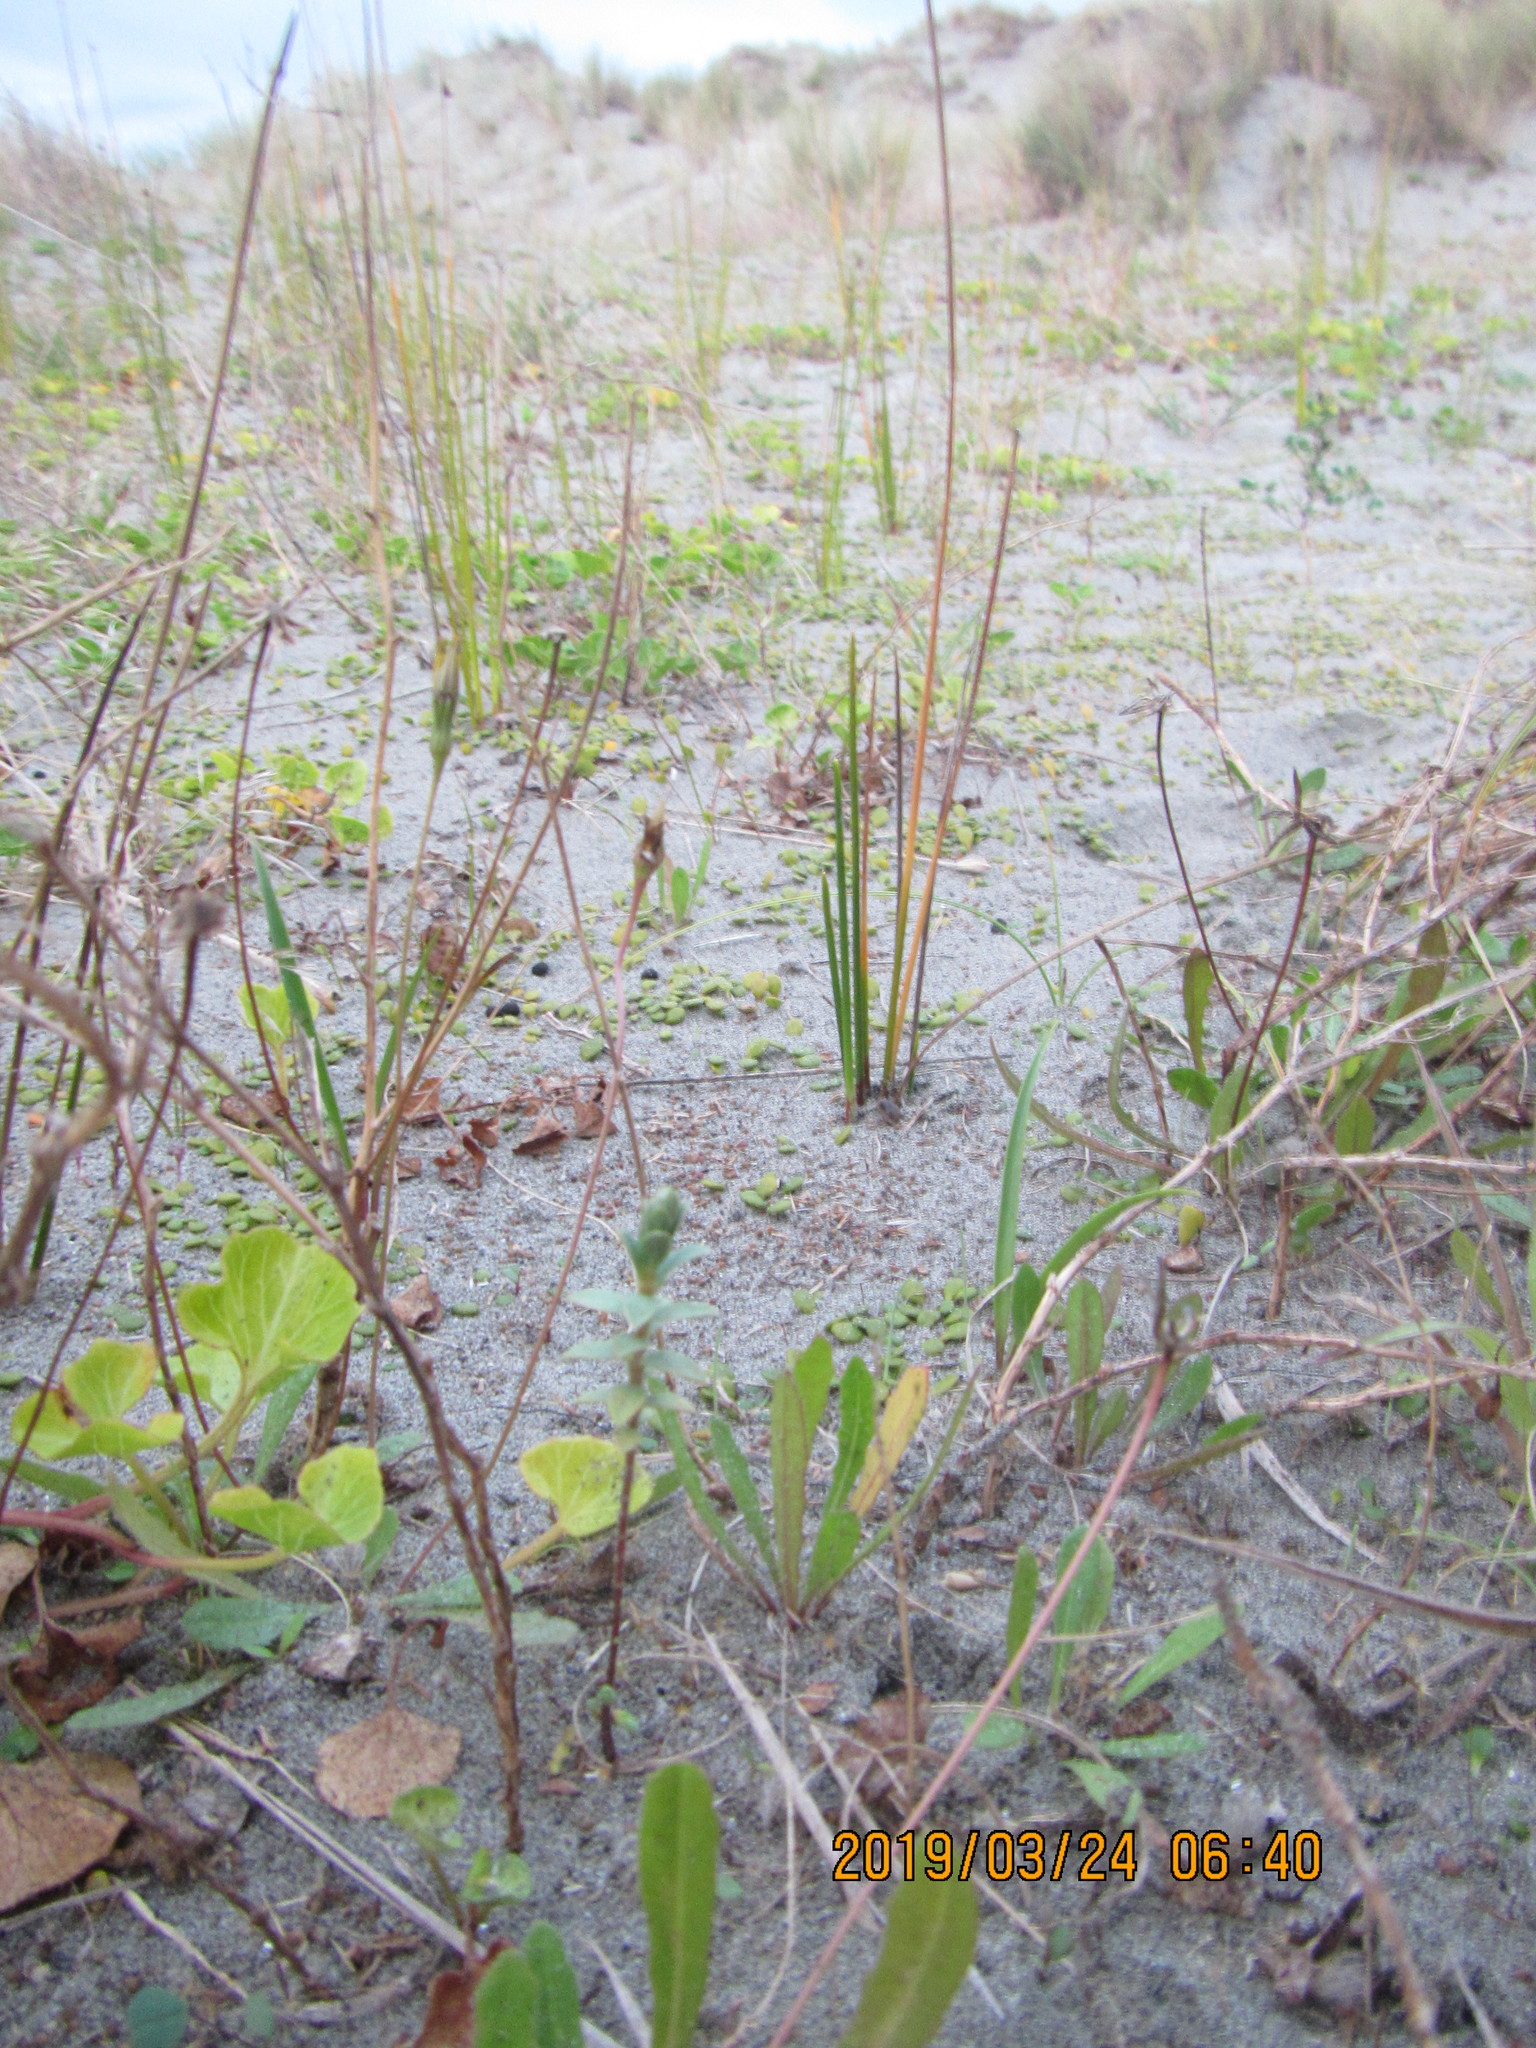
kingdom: Plantae
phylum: Tracheophyta
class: Magnoliopsida
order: Malvales
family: Thymelaeaceae
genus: Pimelea
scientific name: Pimelea villosa
